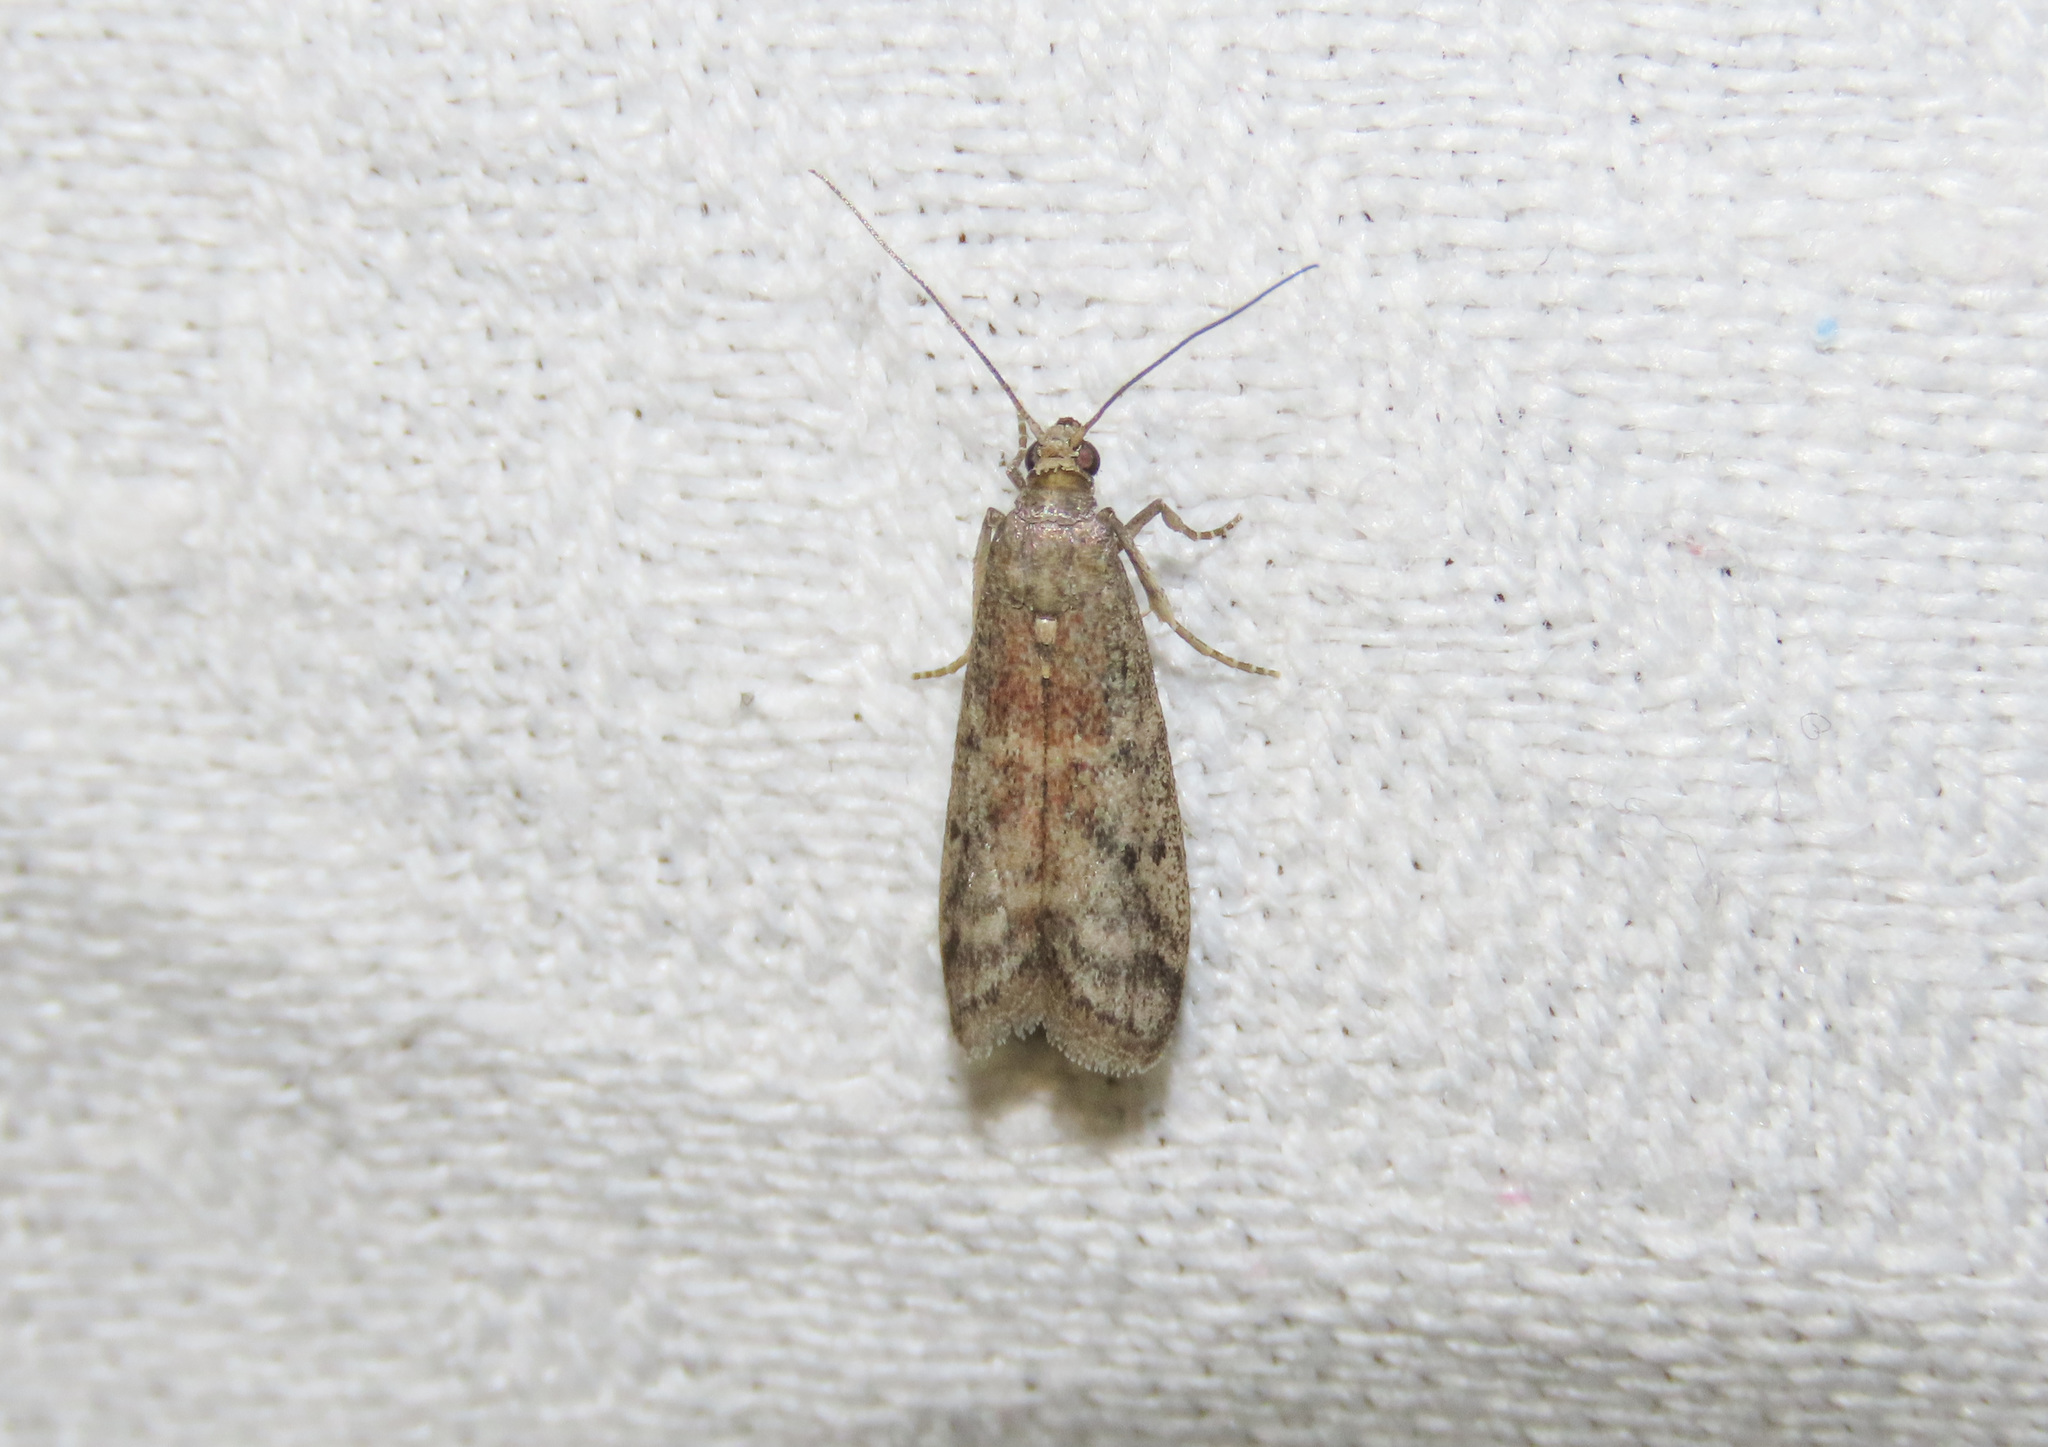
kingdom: Animalia
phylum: Arthropoda
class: Insecta
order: Lepidoptera
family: Pyralidae
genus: Ephestia
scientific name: Ephestia woodiella
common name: False cacao moth
